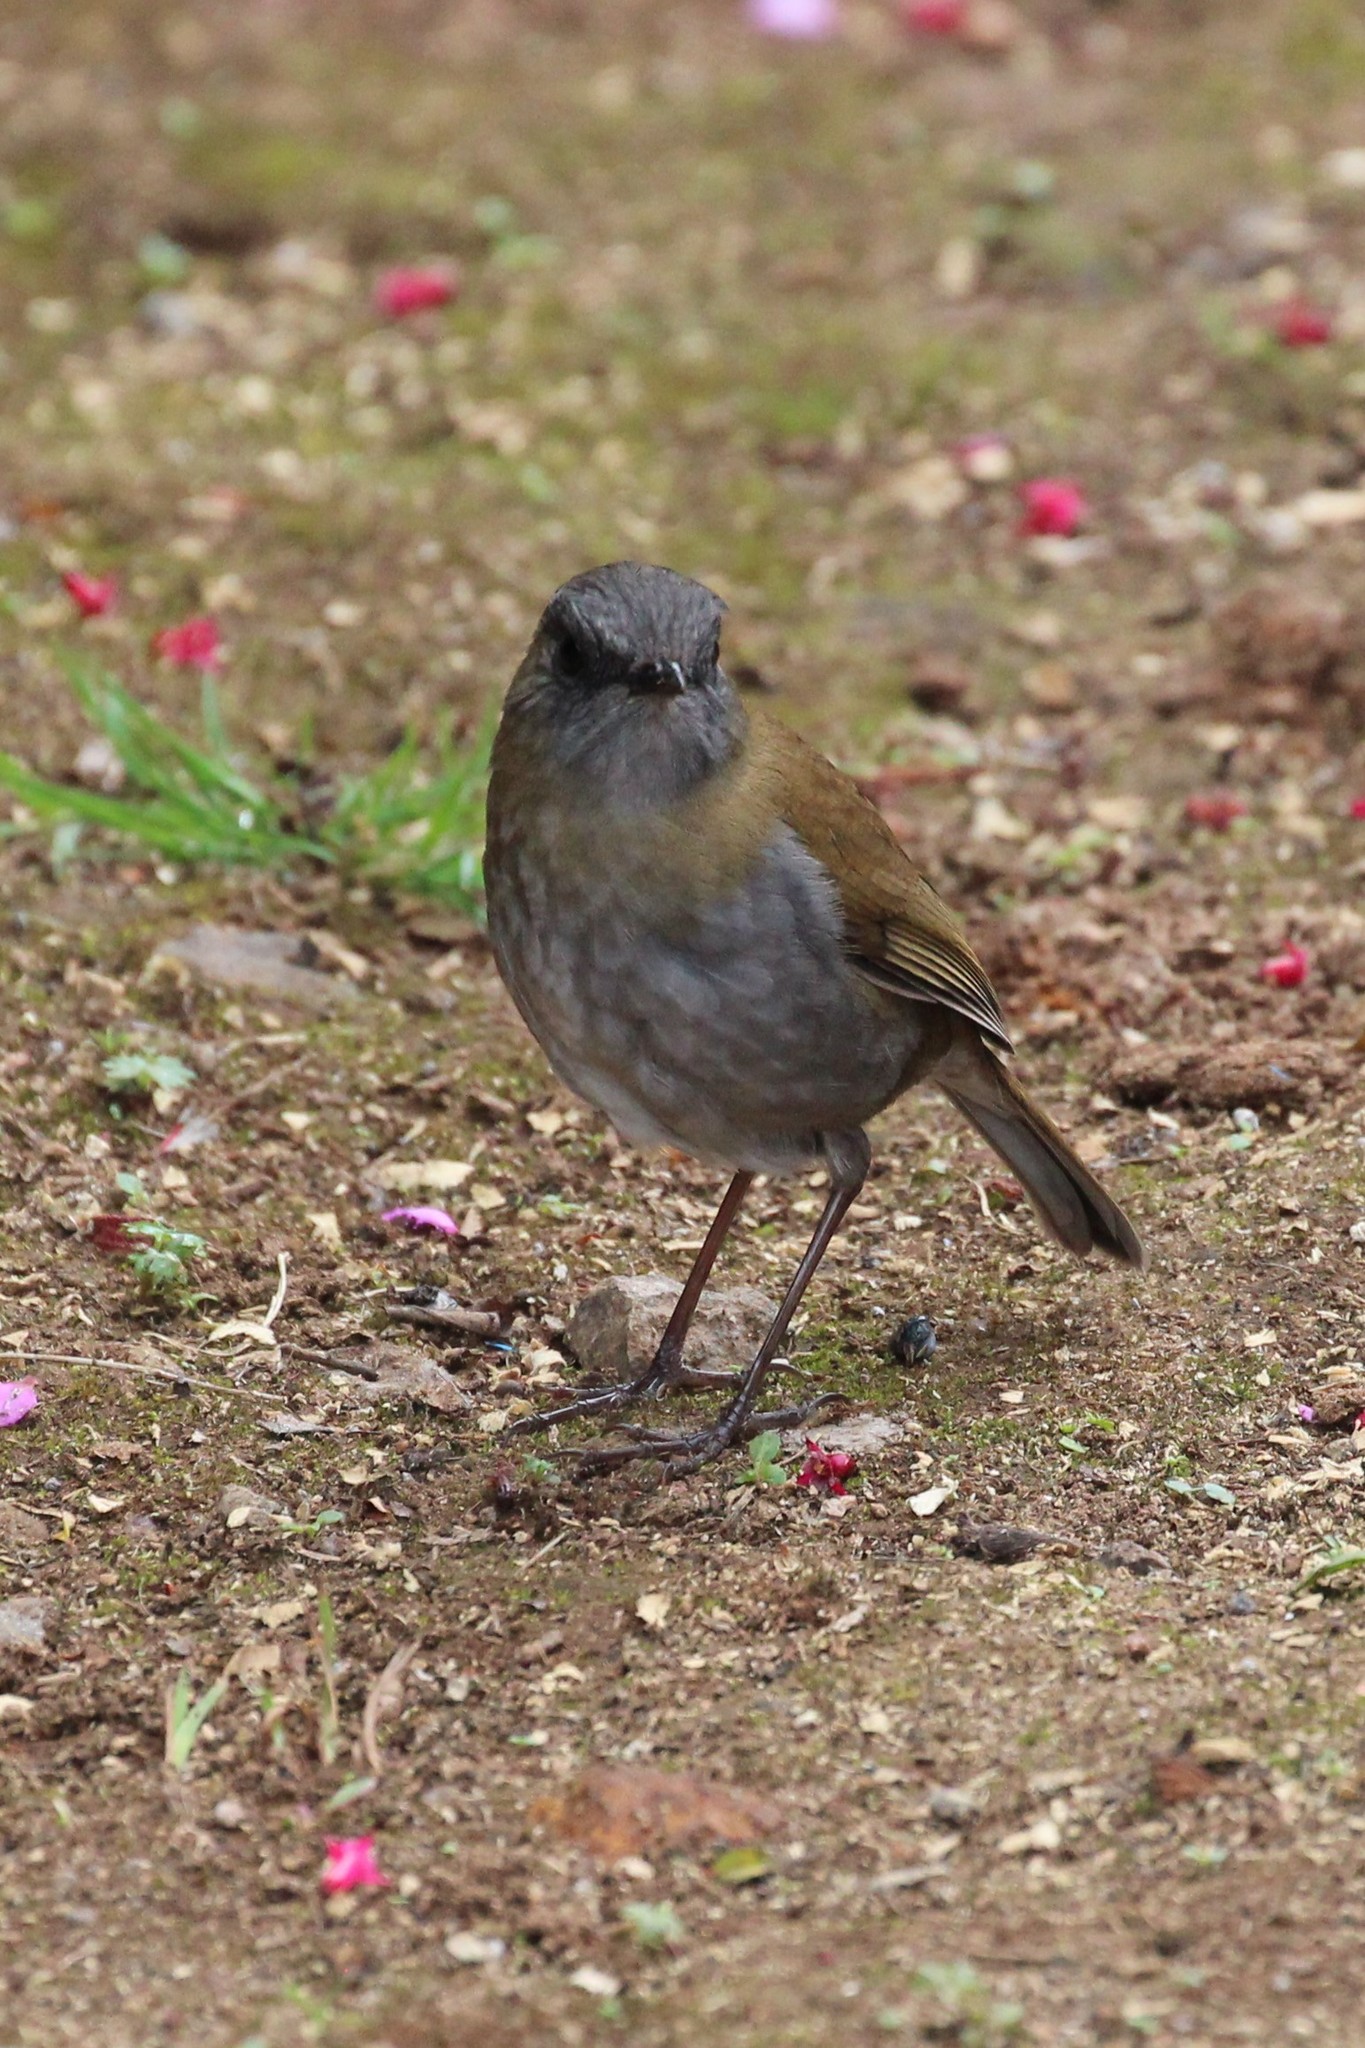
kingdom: Animalia
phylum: Chordata
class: Aves
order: Passeriformes
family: Turdidae
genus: Catharus
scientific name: Catharus gracilirostris
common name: Black-billed nightingale-thrush
